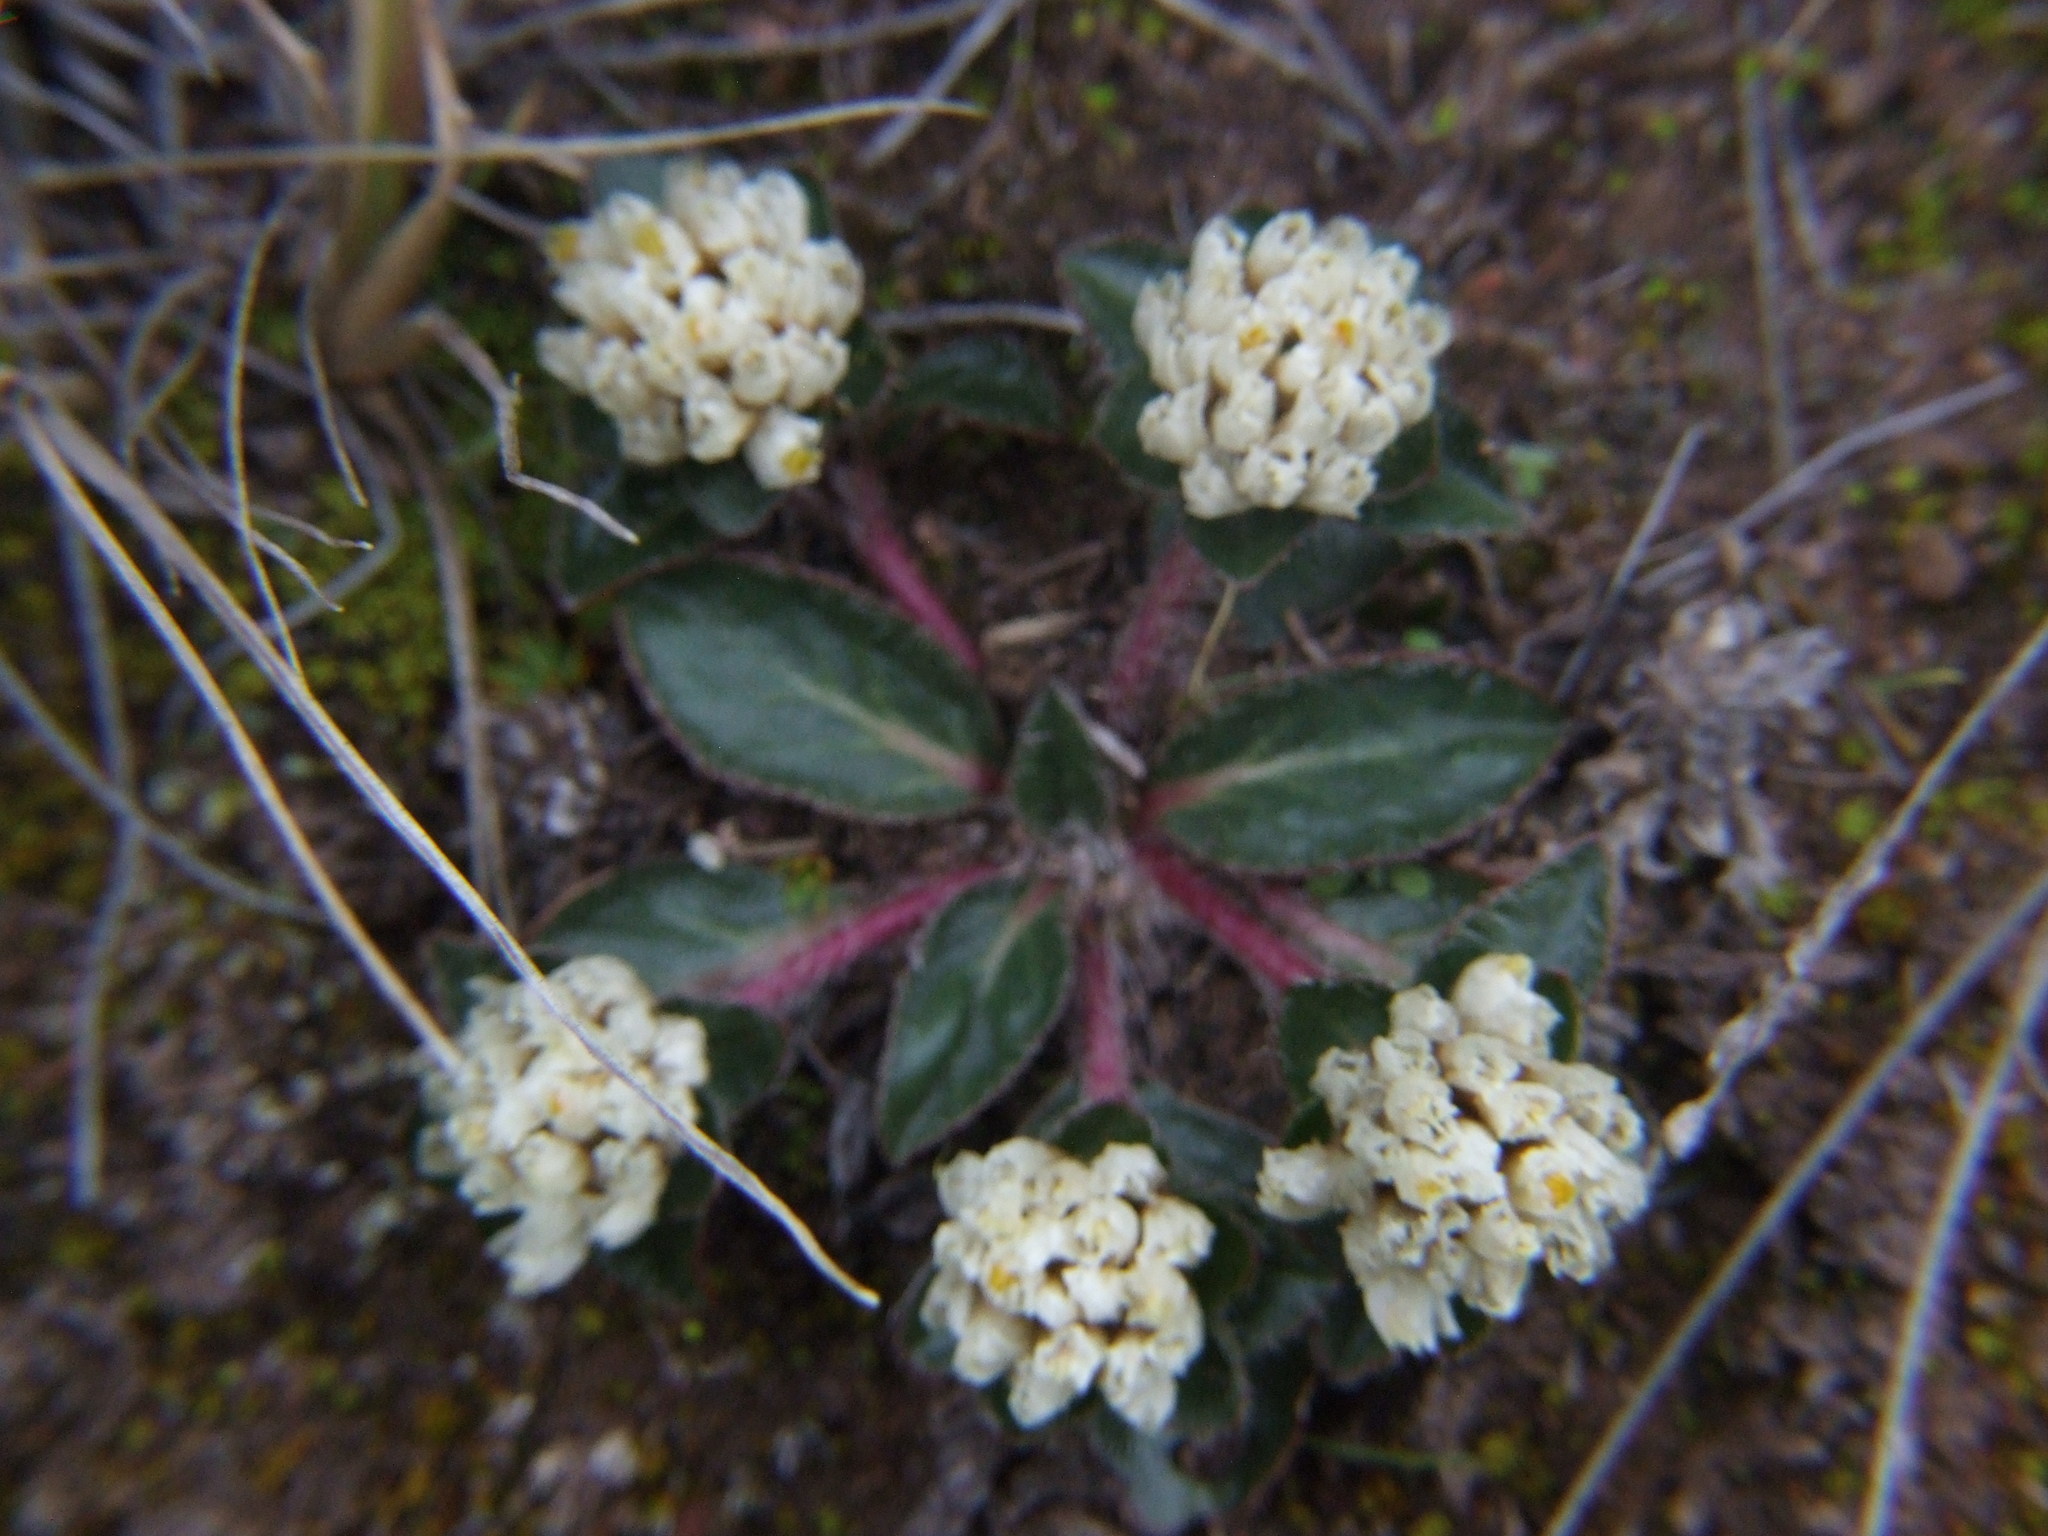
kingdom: Plantae
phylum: Tracheophyta
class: Magnoliopsida
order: Caryophyllales
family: Amaranthaceae
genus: Gomphrena
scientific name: Gomphrena meyeniana
